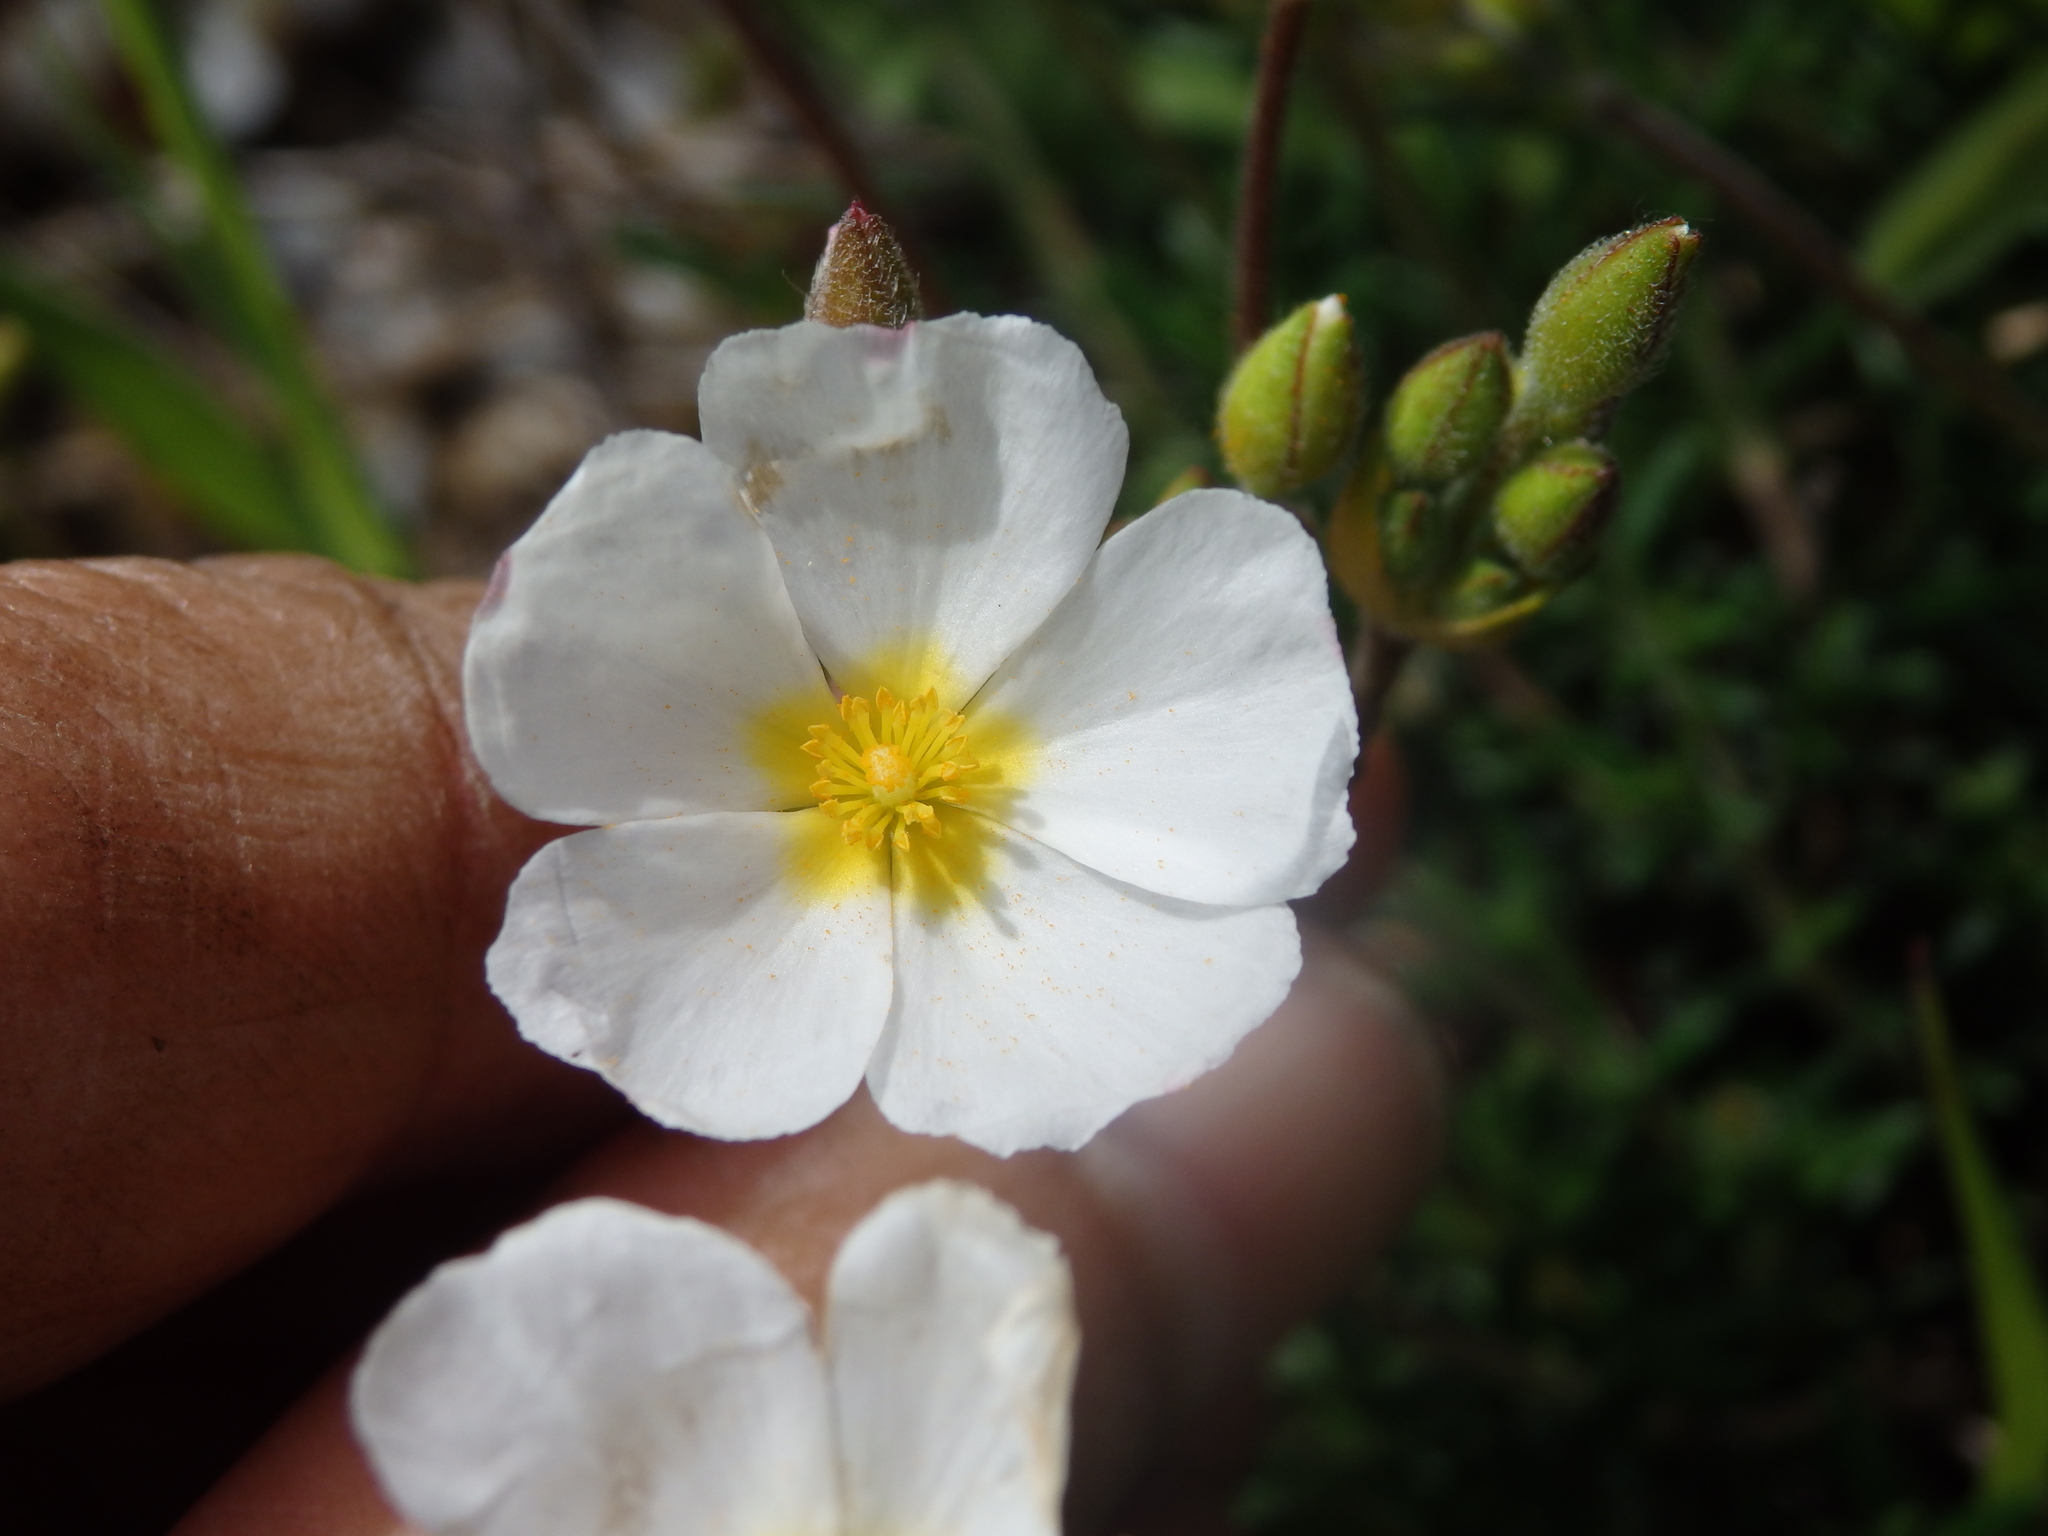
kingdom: Plantae
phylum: Tracheophyta
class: Magnoliopsida
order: Malvales
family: Cistaceae
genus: Halimium
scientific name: Halimium umbellatum
